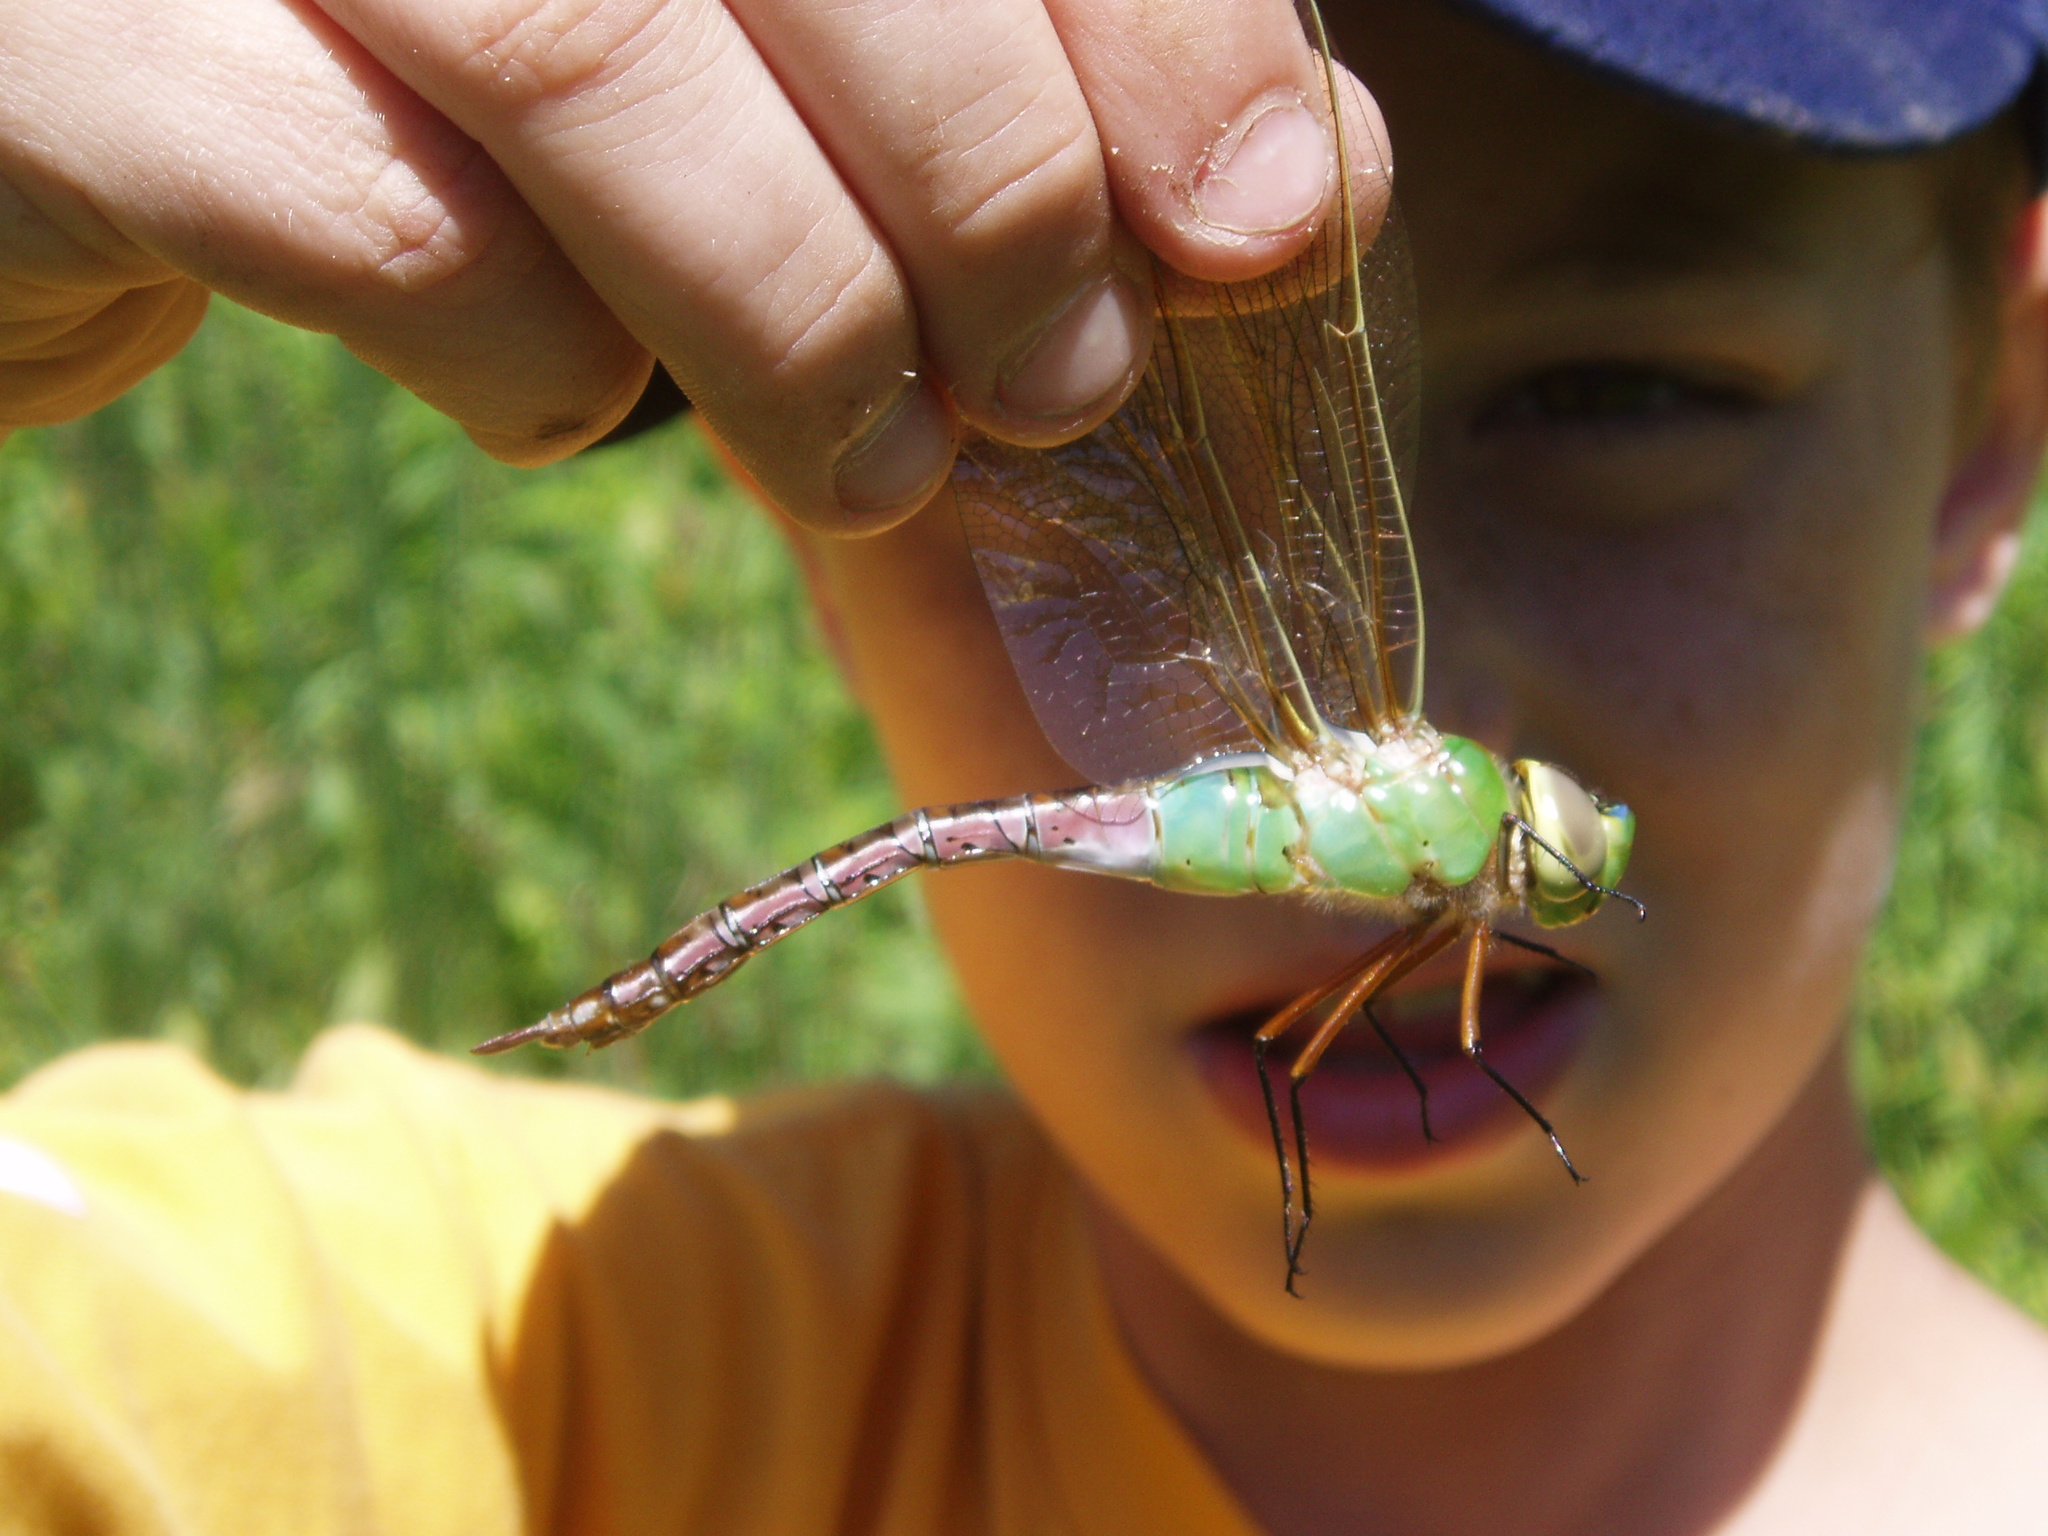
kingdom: Animalia
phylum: Arthropoda
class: Insecta
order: Odonata
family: Aeshnidae
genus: Anax
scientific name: Anax junius
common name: Common green darner
